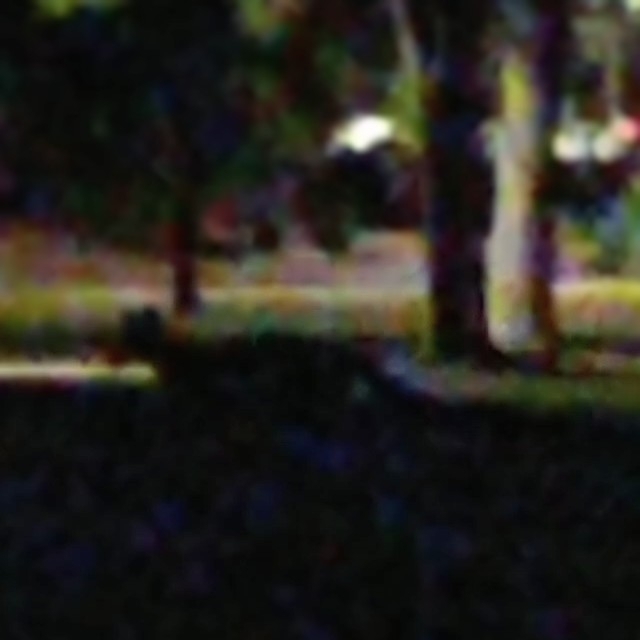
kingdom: Animalia
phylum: Chordata
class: Mammalia
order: Carnivora
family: Canidae
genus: Urocyon
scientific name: Urocyon cinereoargenteus
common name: Gray fox
